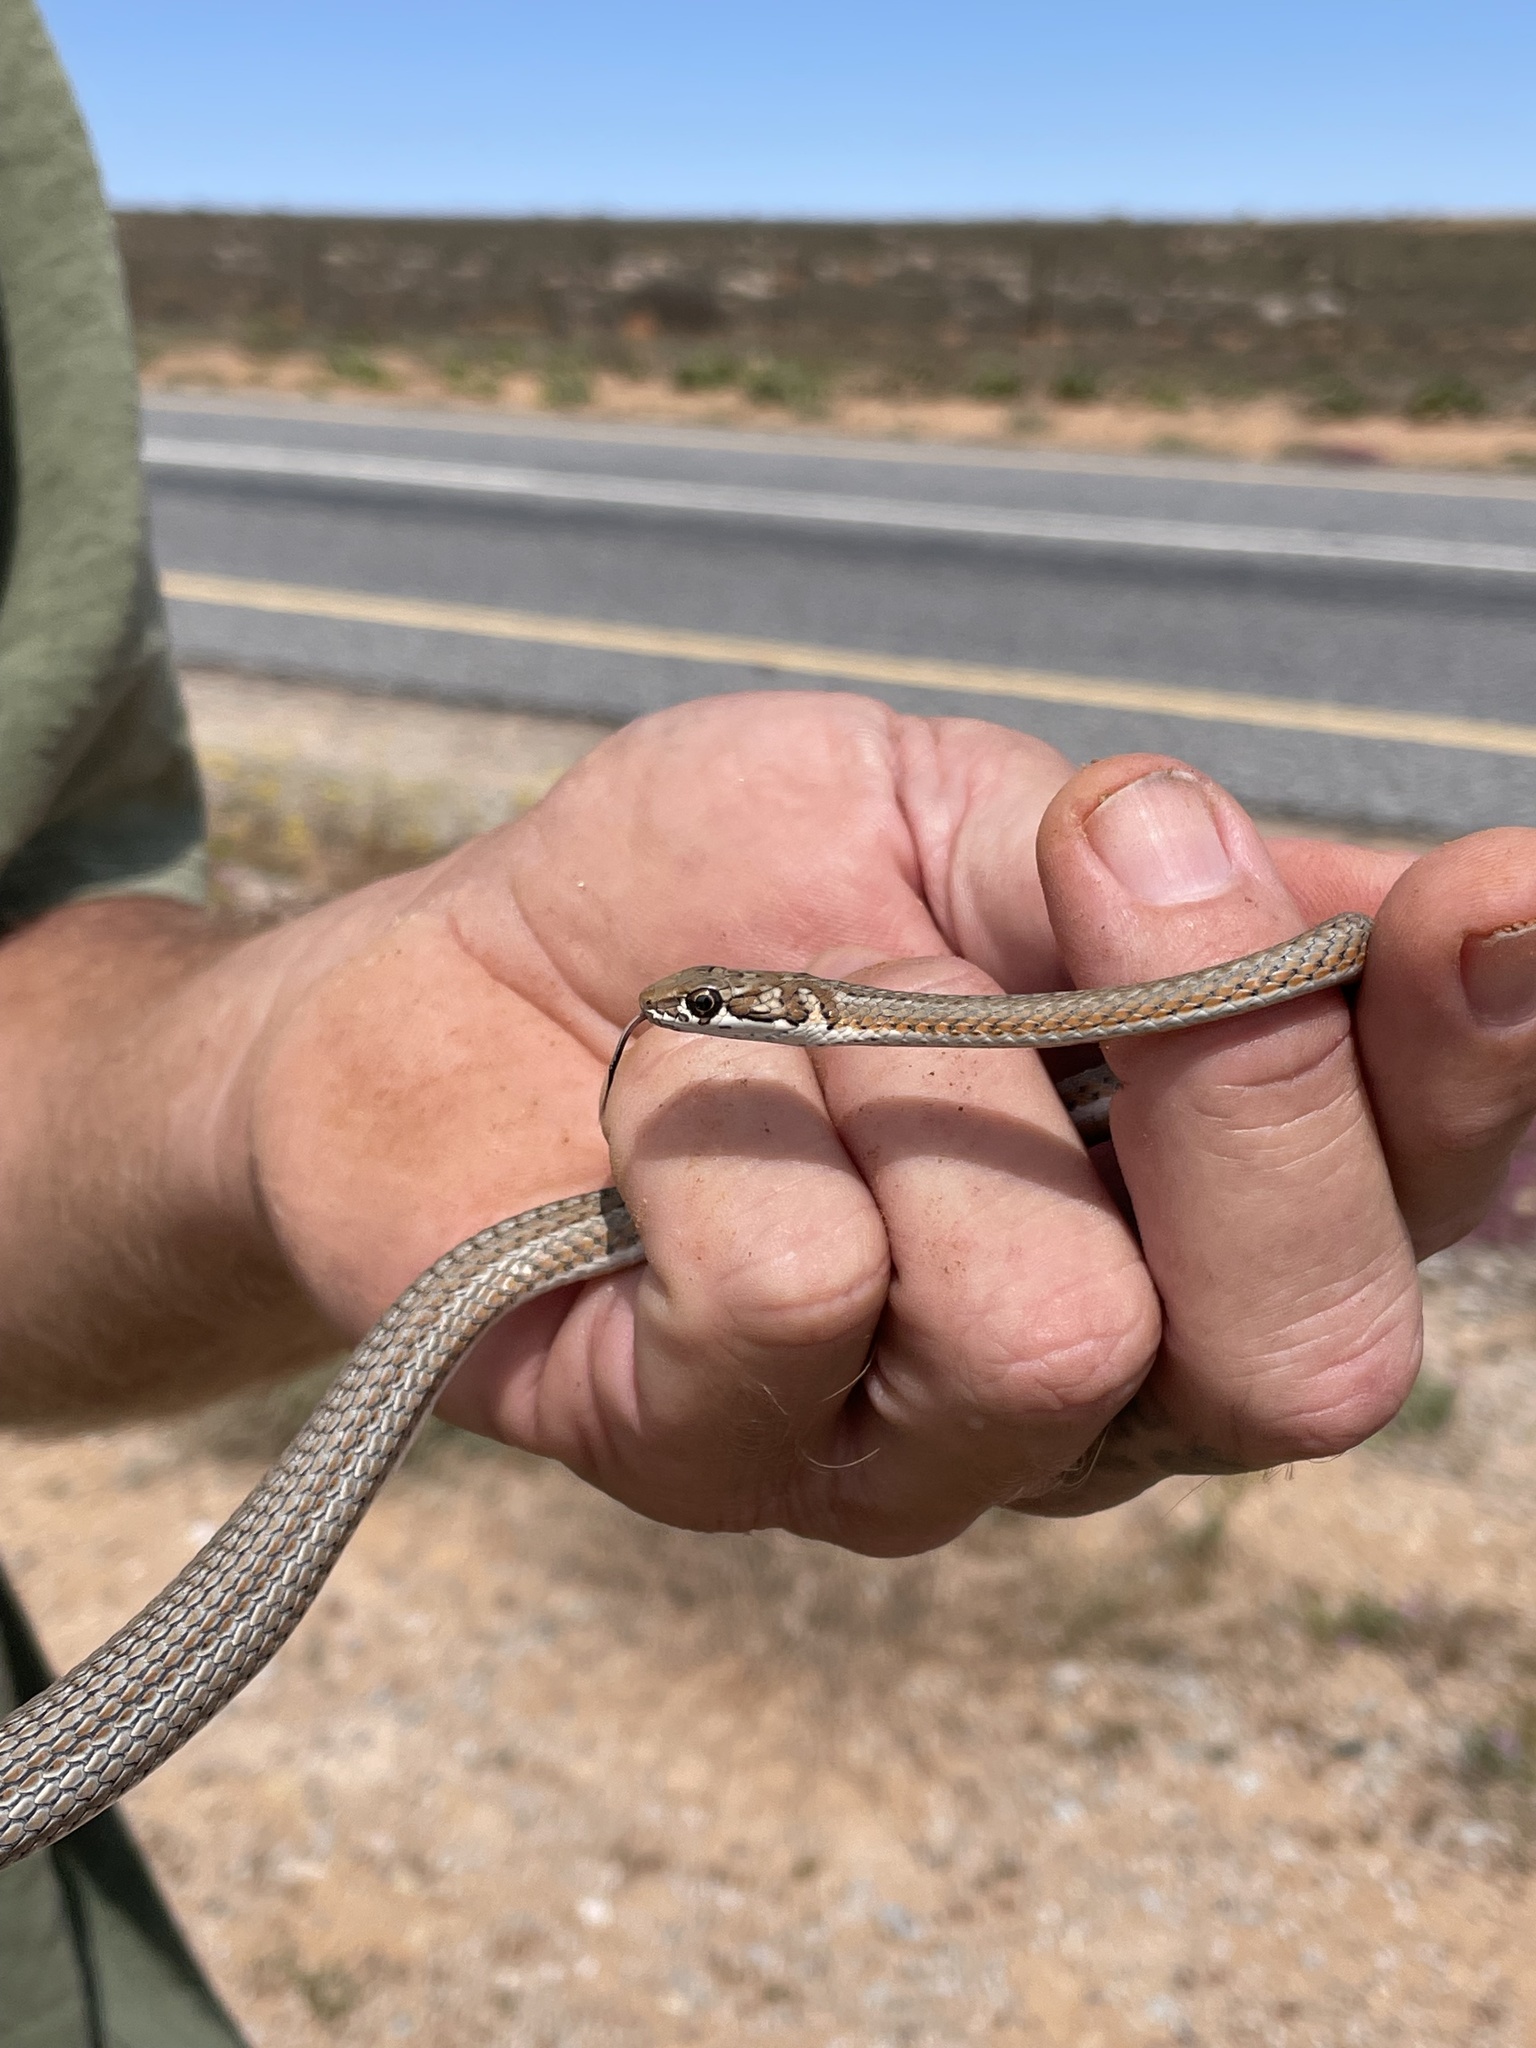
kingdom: Animalia
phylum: Chordata
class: Squamata
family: Psammophiidae
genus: Psammophis
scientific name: Psammophis notostictus
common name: Karoo sand snake
